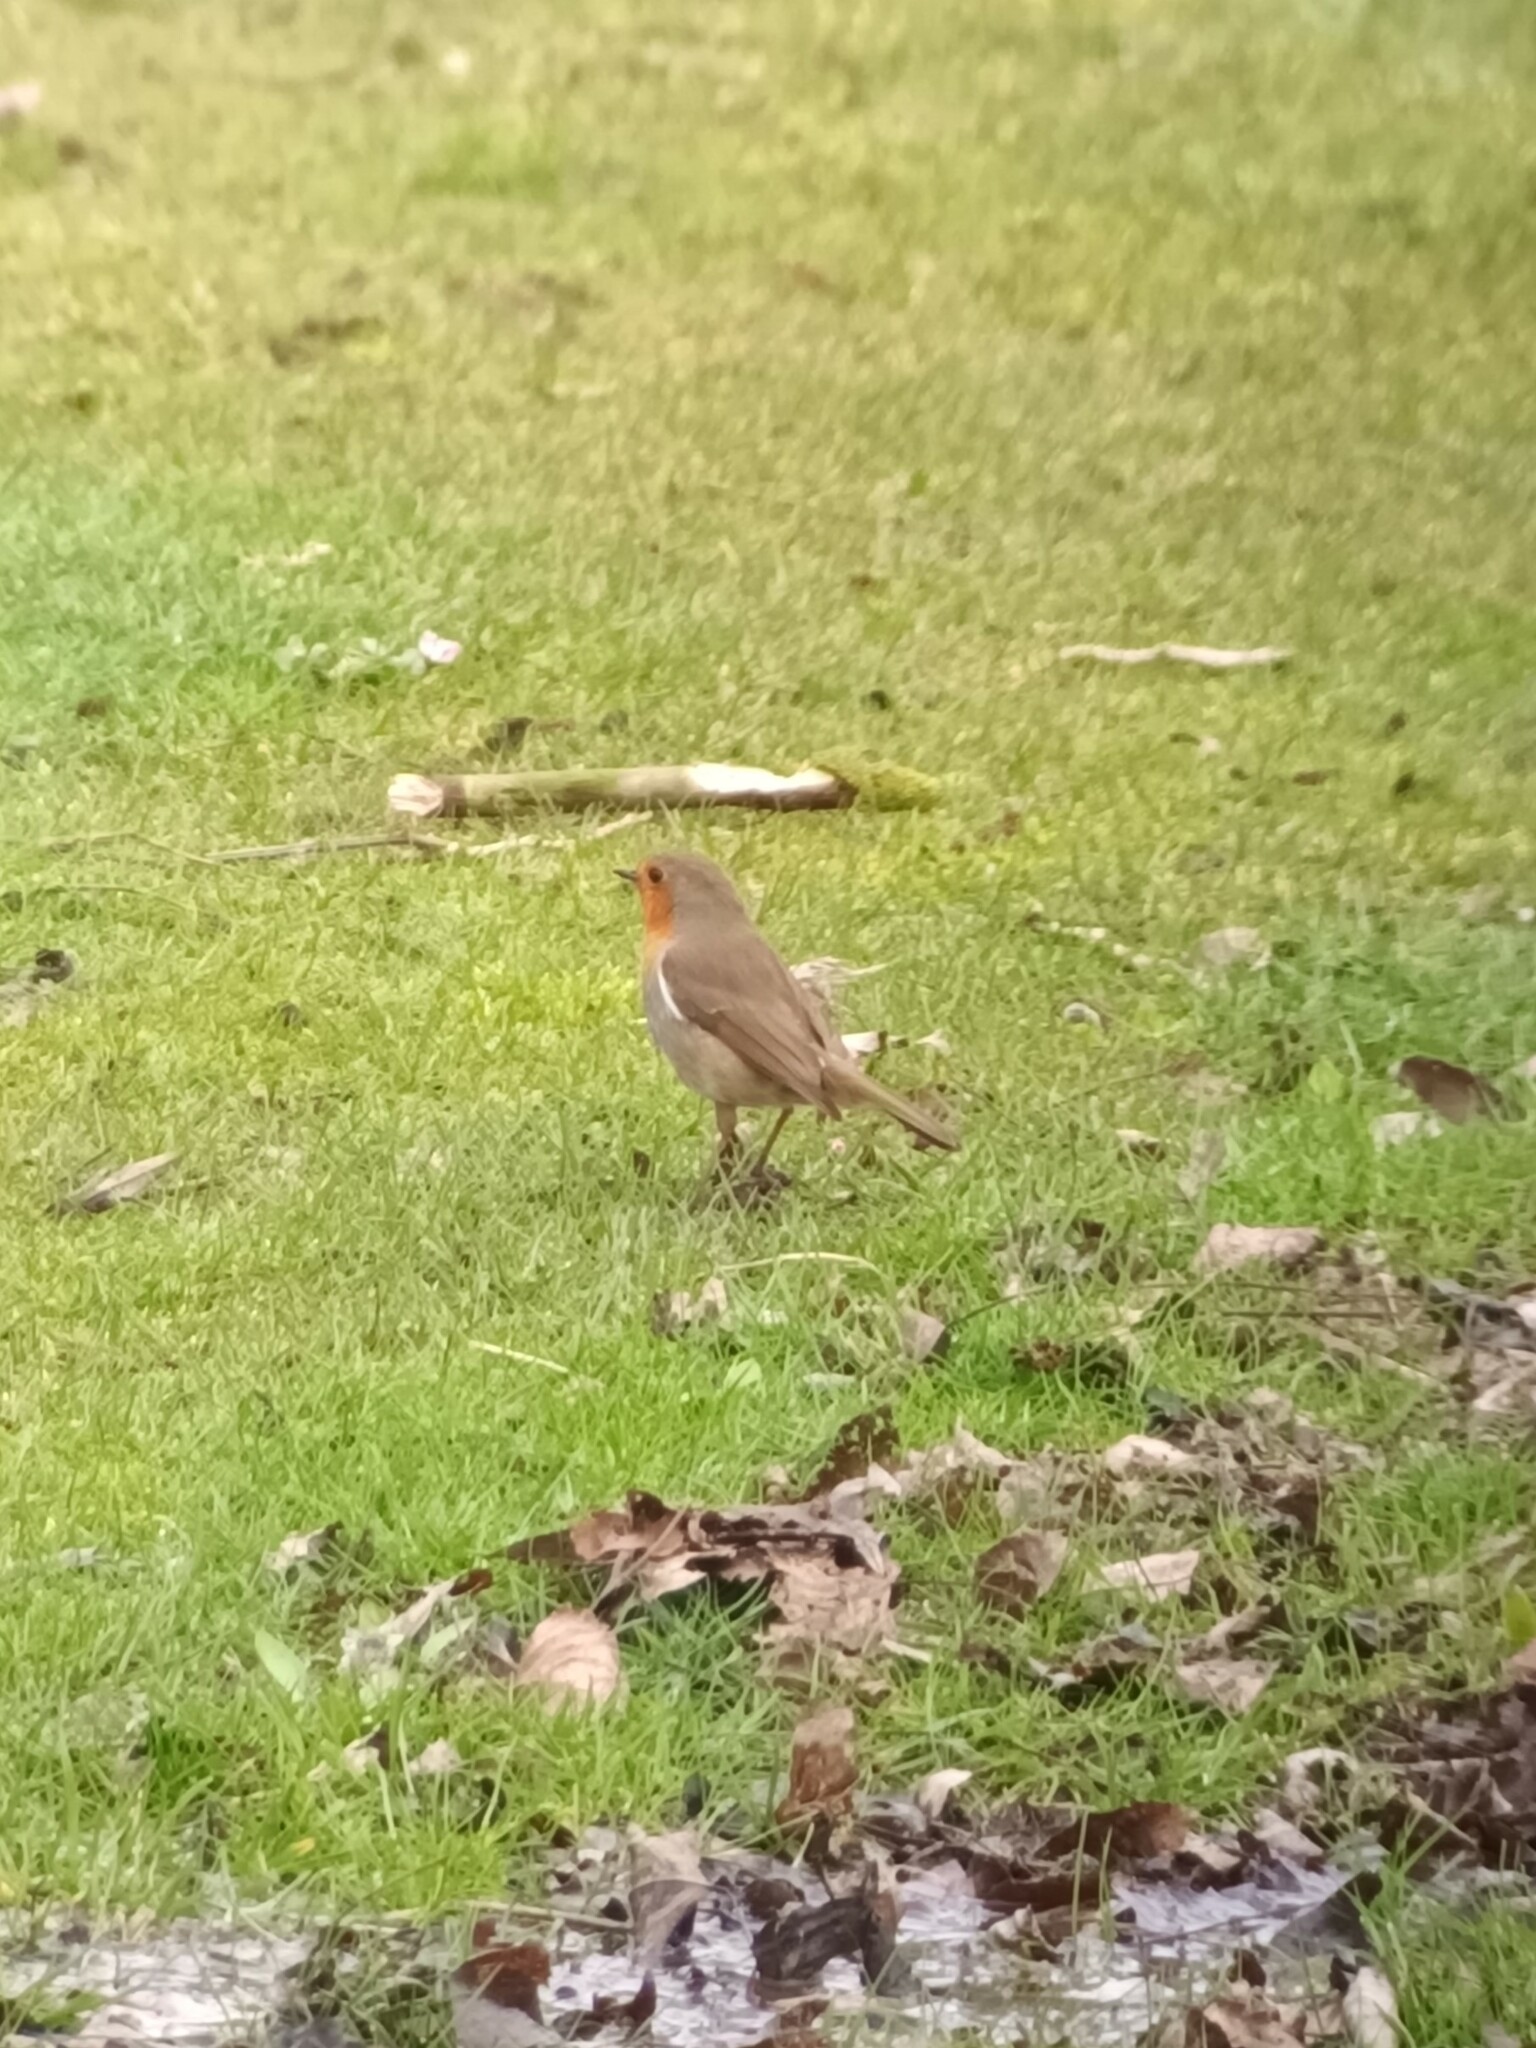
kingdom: Animalia
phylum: Chordata
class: Aves
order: Passeriformes
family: Muscicapidae
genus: Erithacus
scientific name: Erithacus rubecula
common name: European robin
